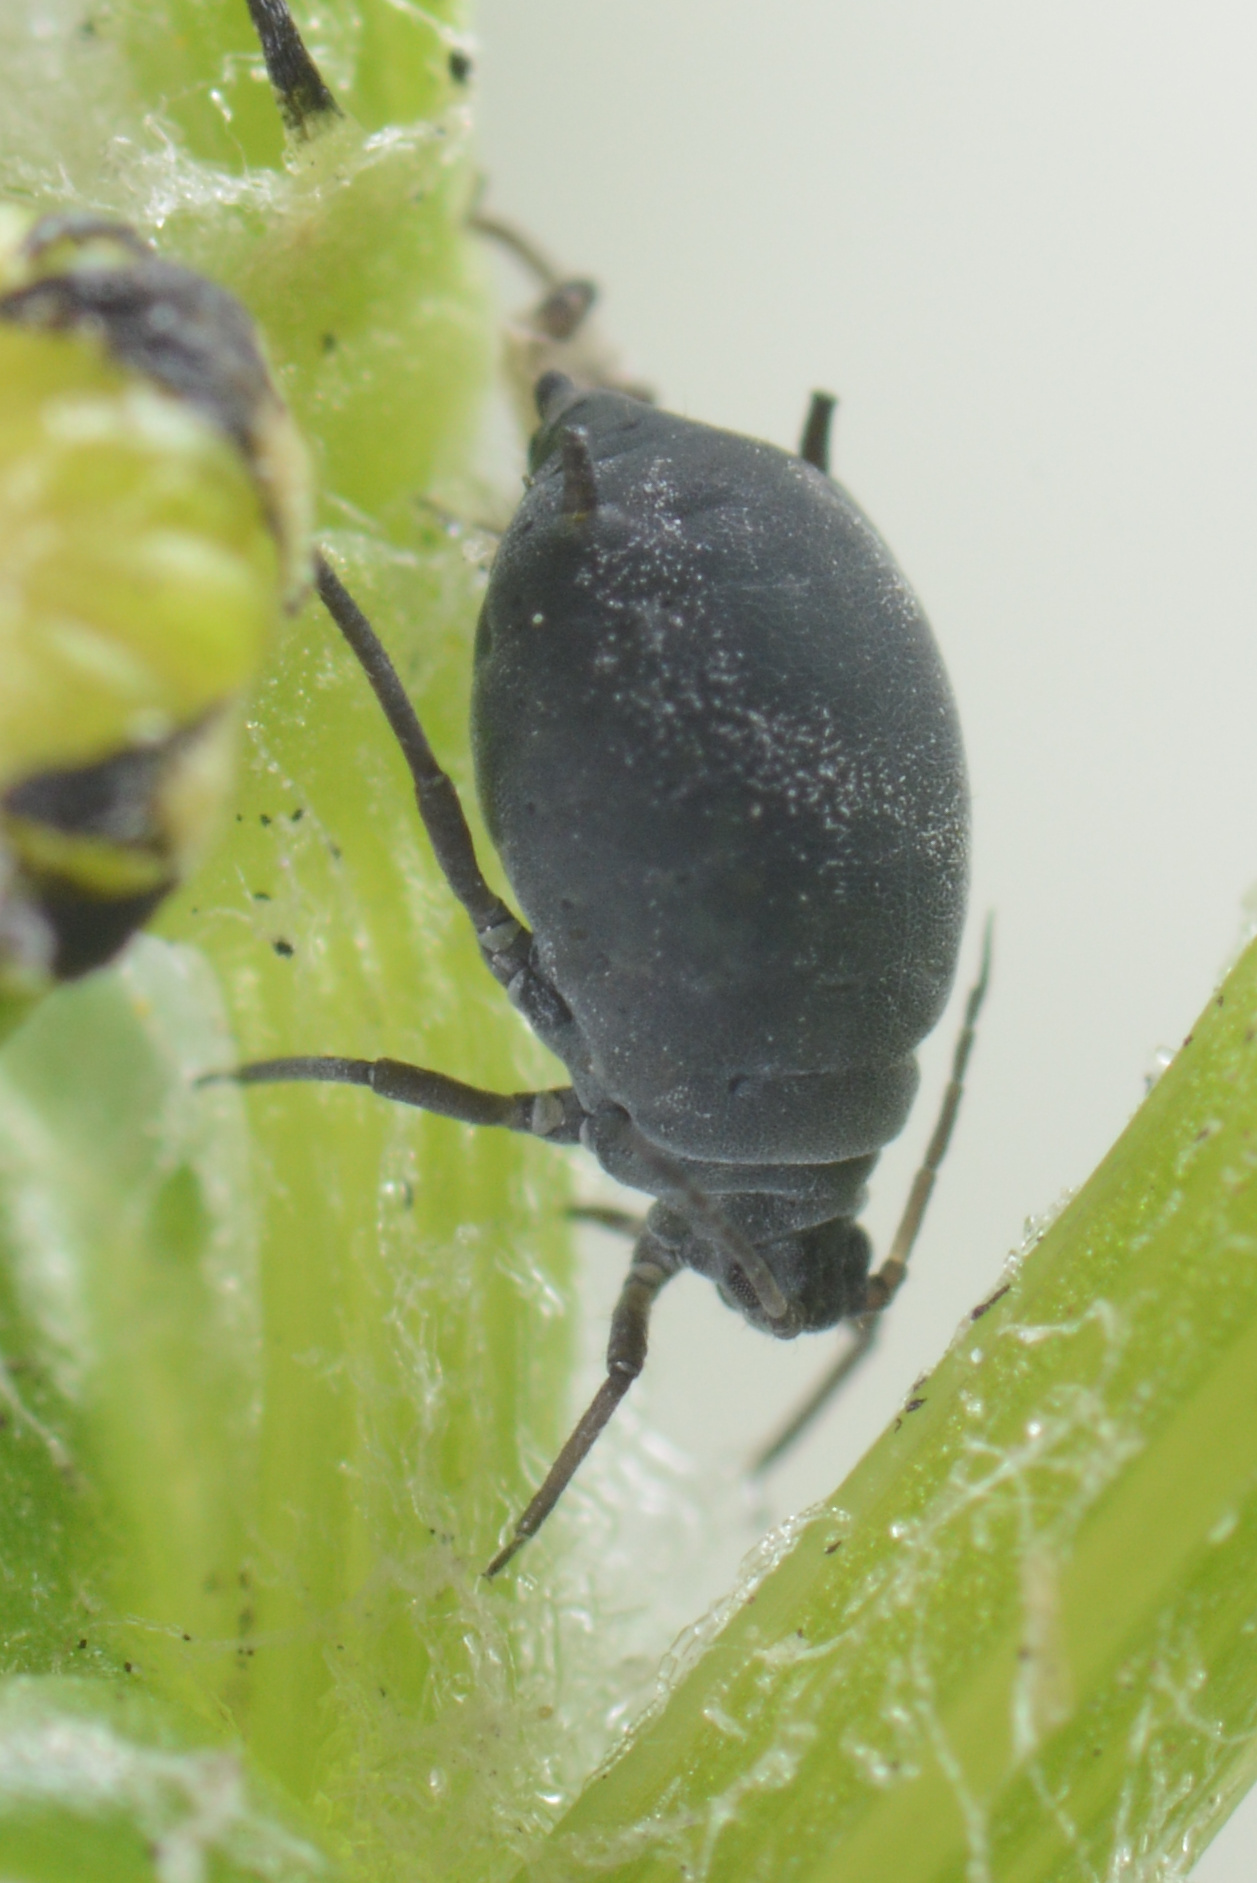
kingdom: Animalia
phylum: Arthropoda
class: Insecta
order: Hemiptera
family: Aphididae
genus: Aphis
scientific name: Aphis lugentis
